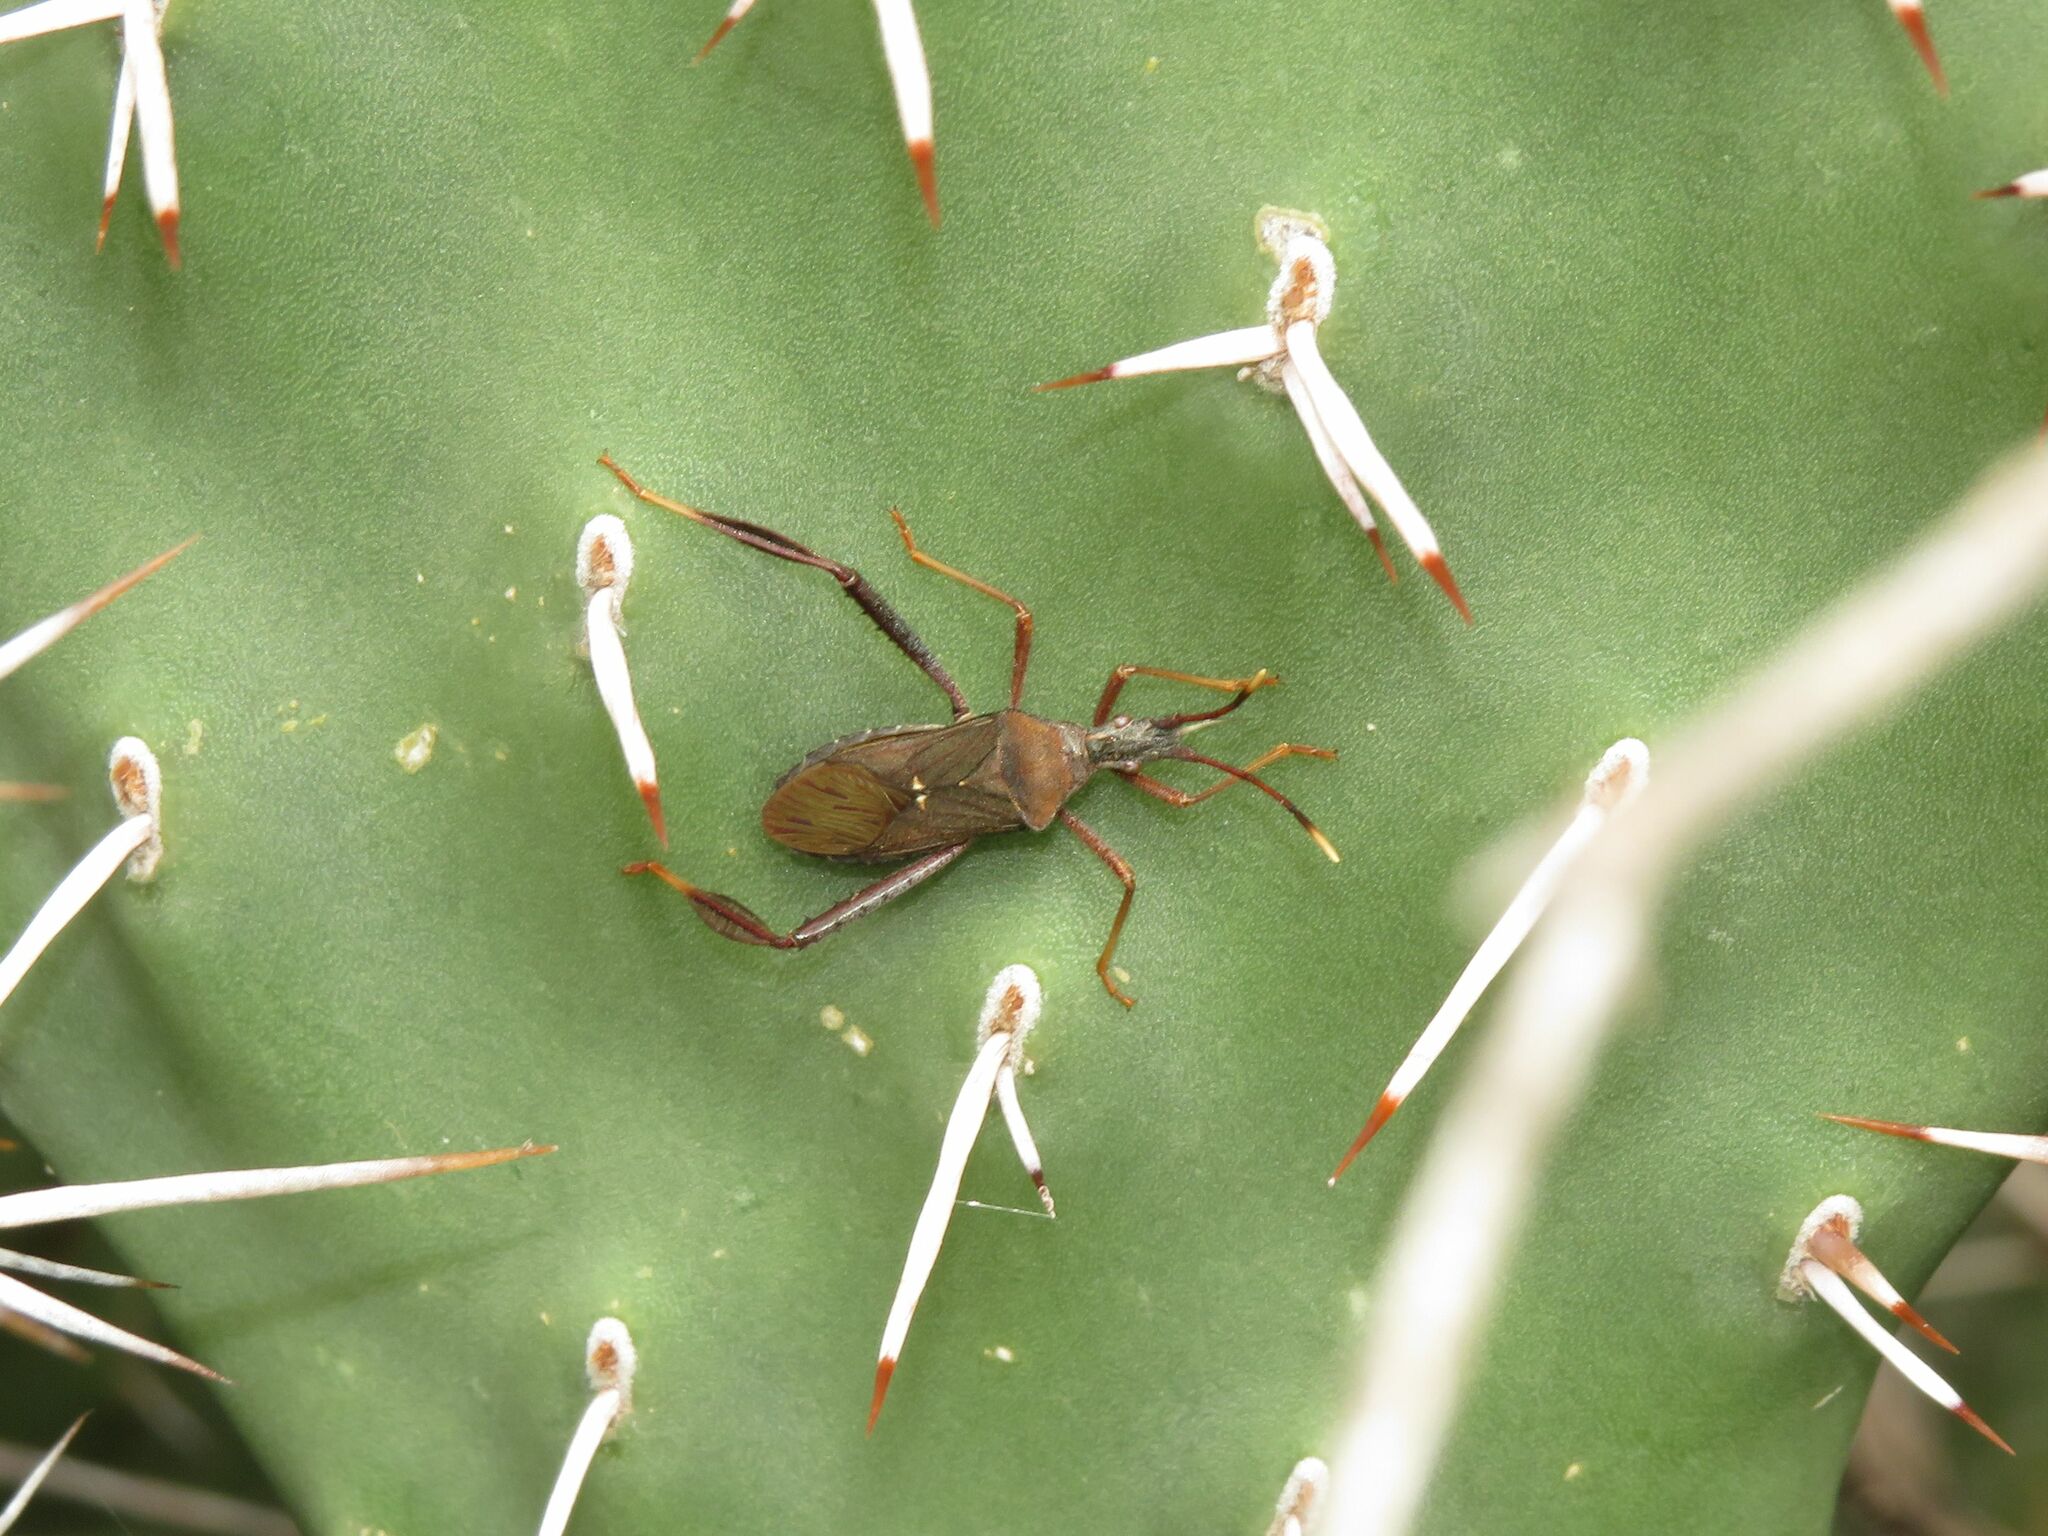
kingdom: Animalia
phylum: Arthropoda
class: Insecta
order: Hemiptera
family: Coreidae
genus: Leptoglossus
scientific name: Leptoglossus crassicornis
